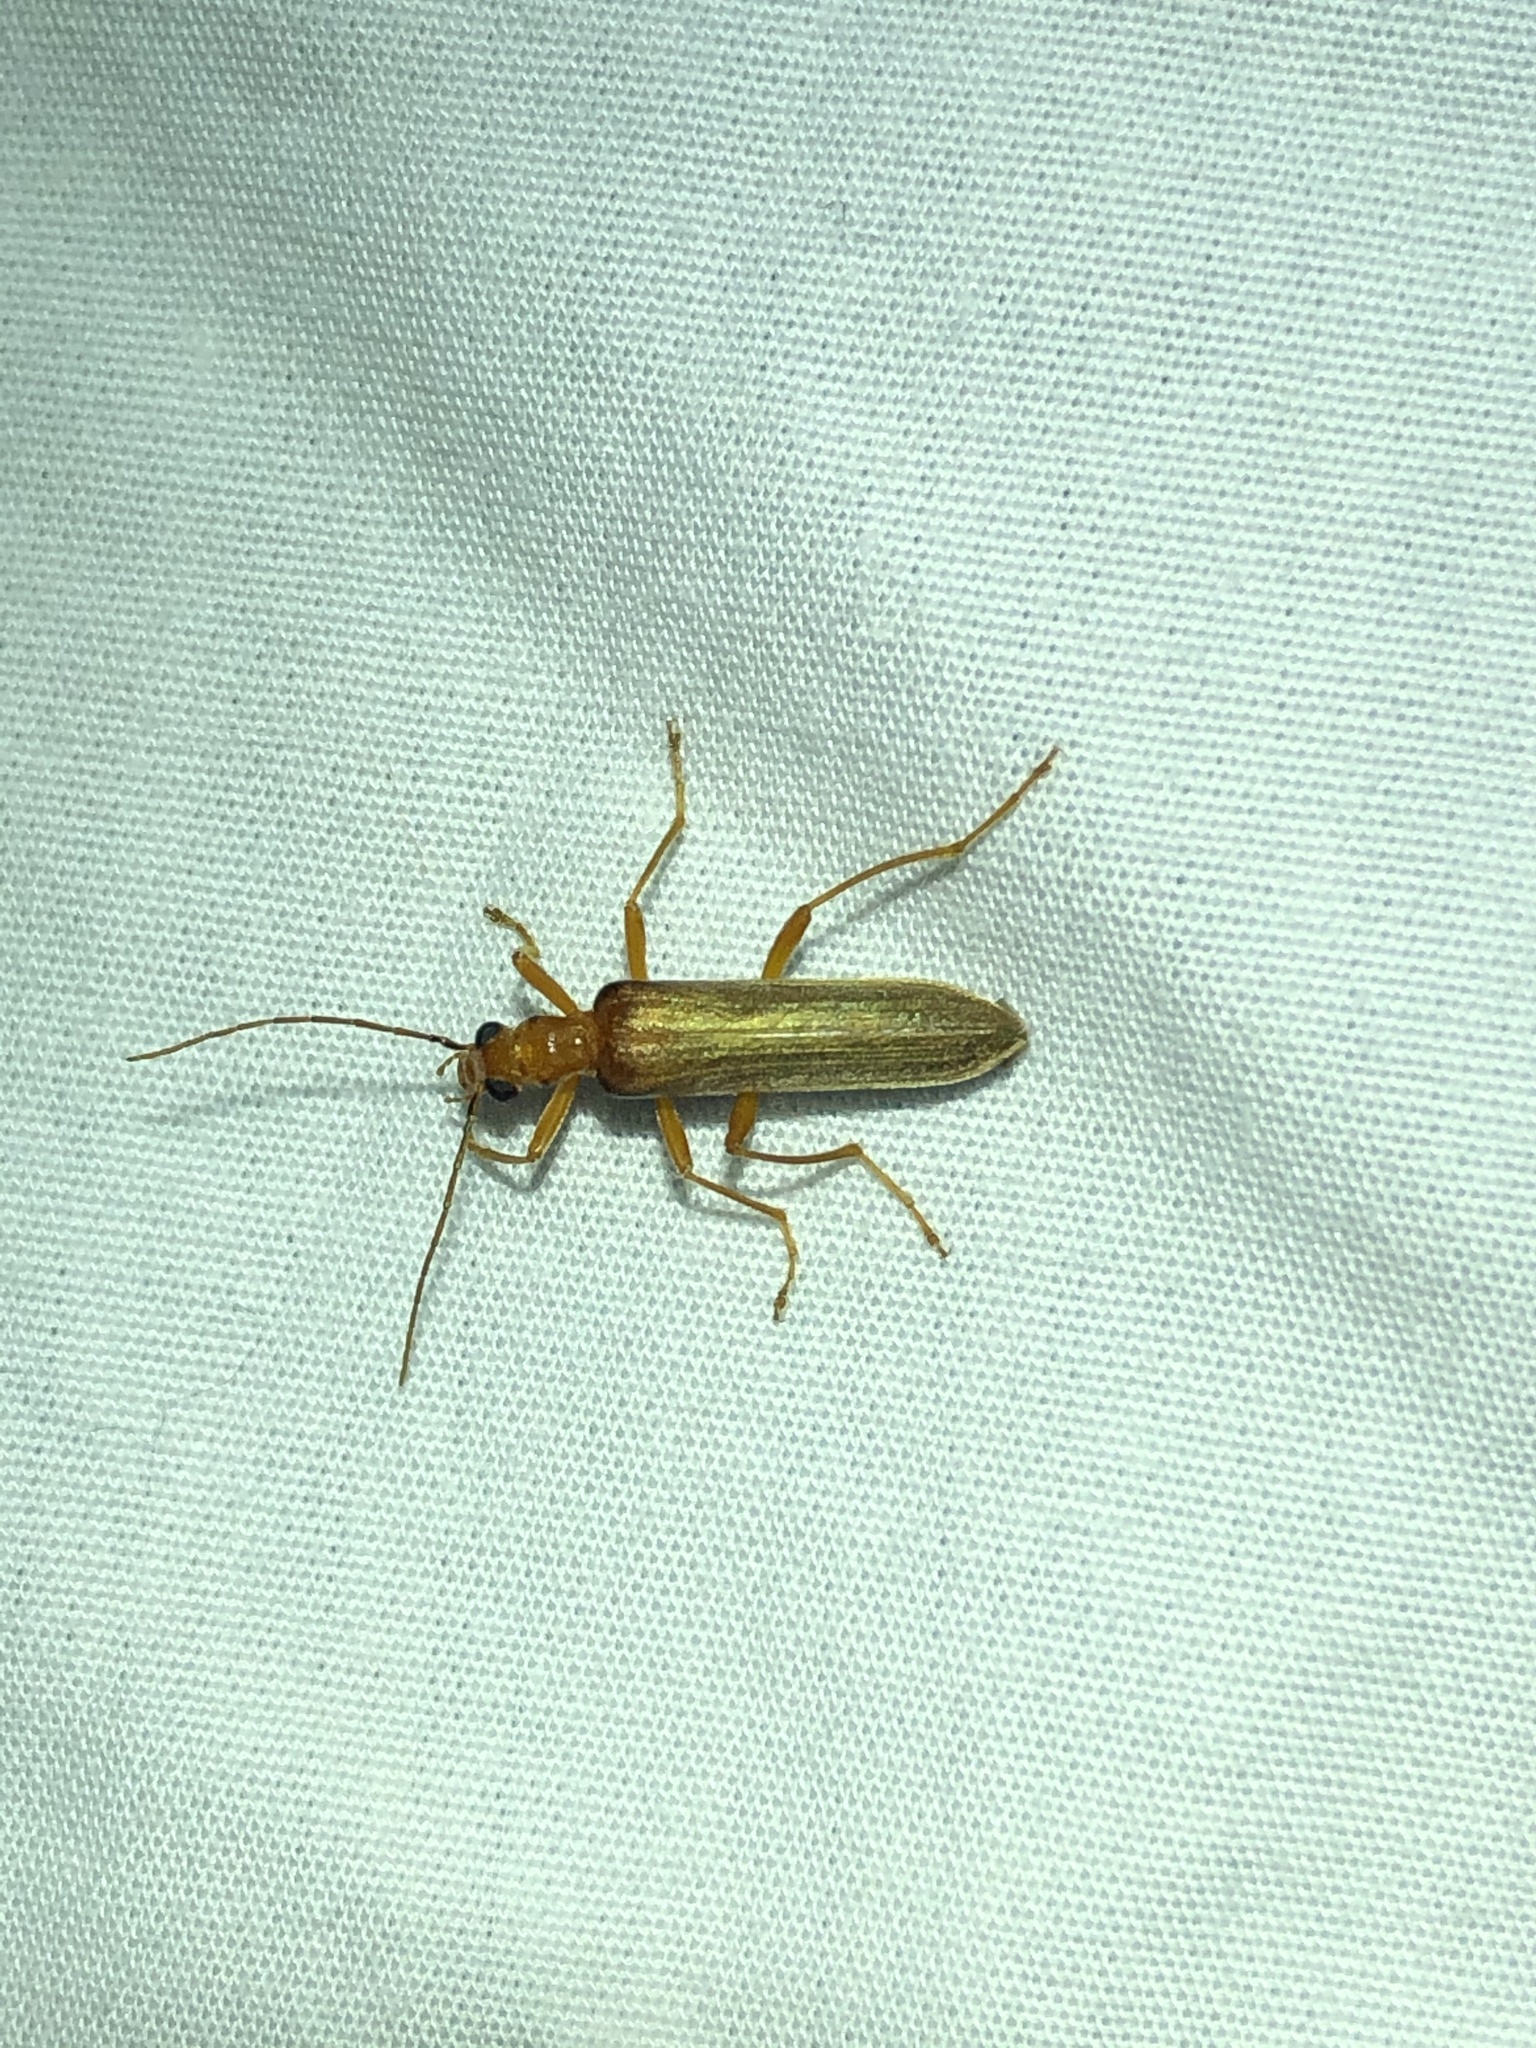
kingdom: Animalia
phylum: Arthropoda
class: Insecta
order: Coleoptera
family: Oedemeridae
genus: Nacerdes
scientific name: Nacerdes
